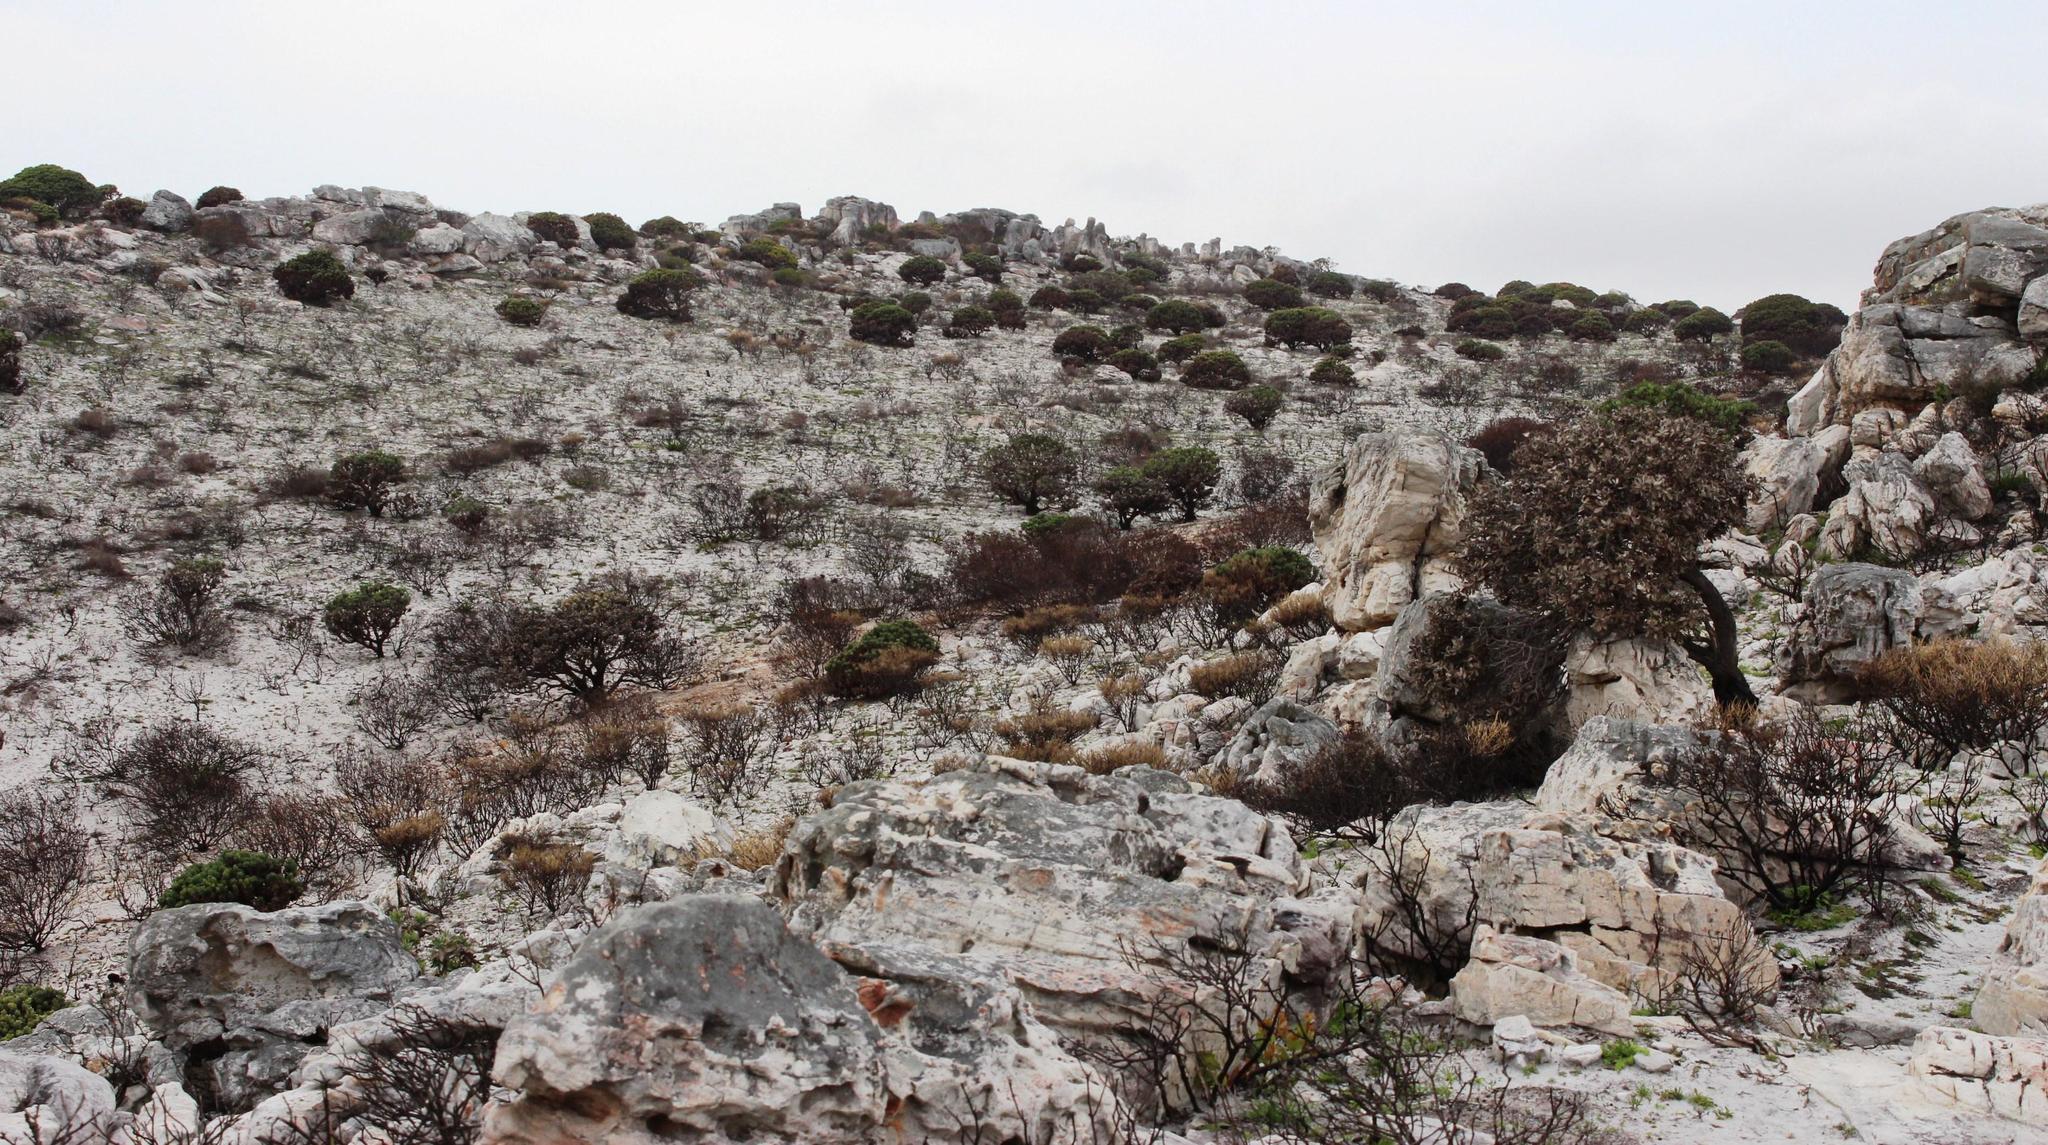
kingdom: Plantae
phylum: Tracheophyta
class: Magnoliopsida
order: Proteales
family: Proteaceae
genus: Mimetes
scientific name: Mimetes fimbriifolius
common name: Fringed bottlebrush
